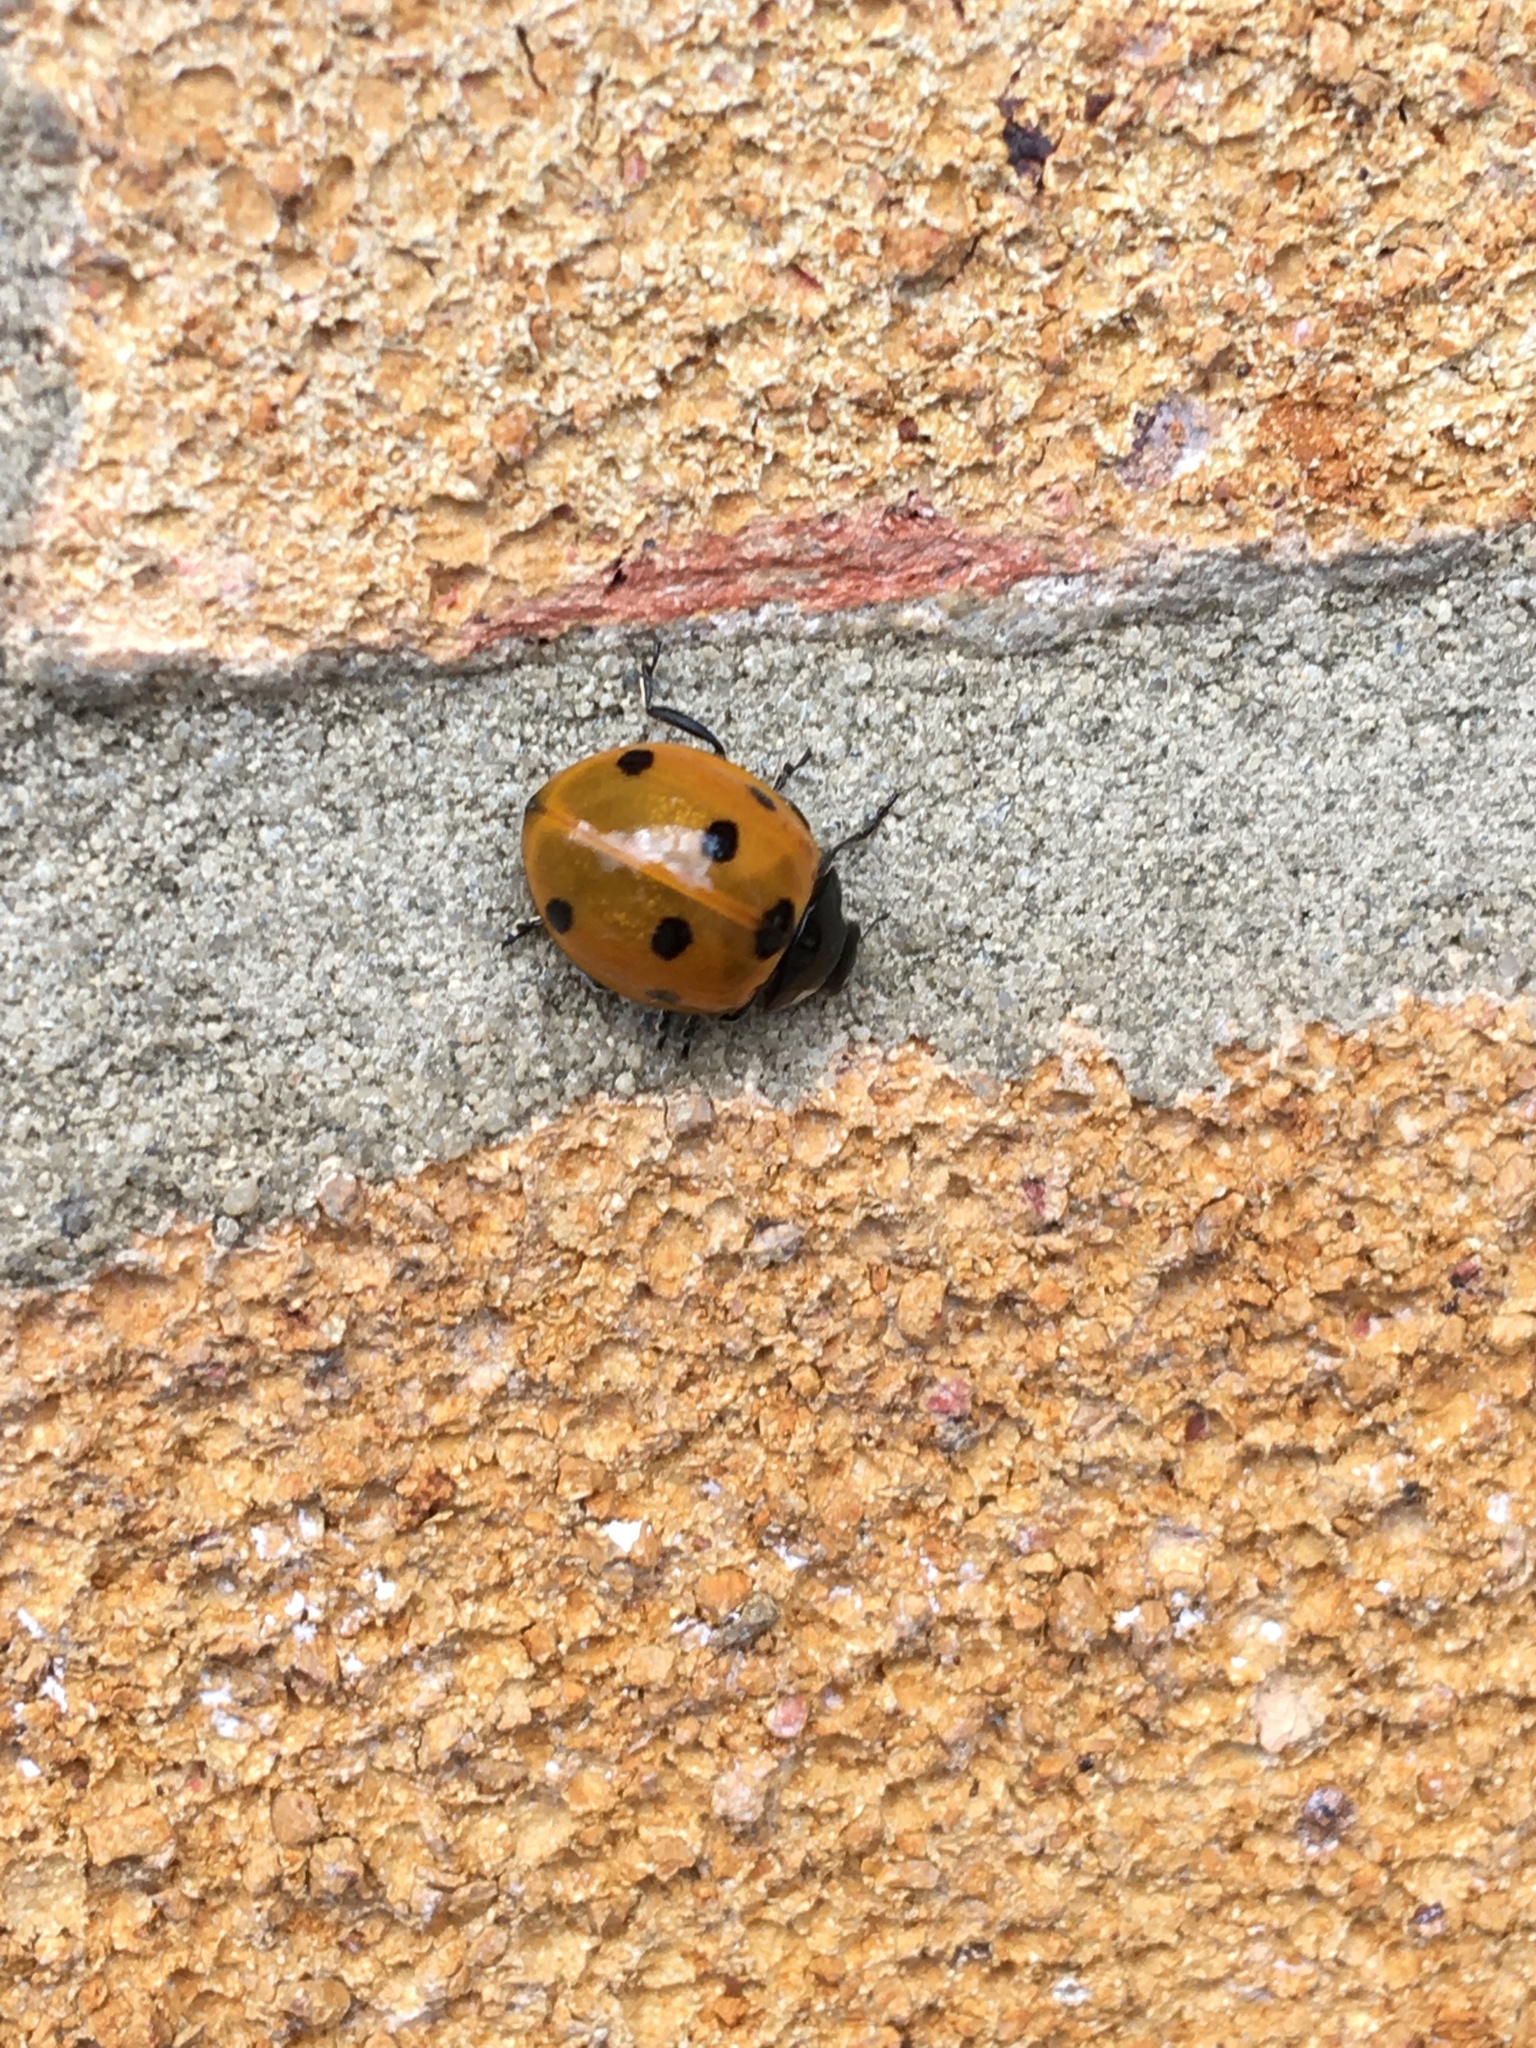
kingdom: Animalia
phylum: Arthropoda
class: Insecta
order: Coleoptera
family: Coccinellidae
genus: Coccinella
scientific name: Coccinella septempunctata
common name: Sevenspotted lady beetle
